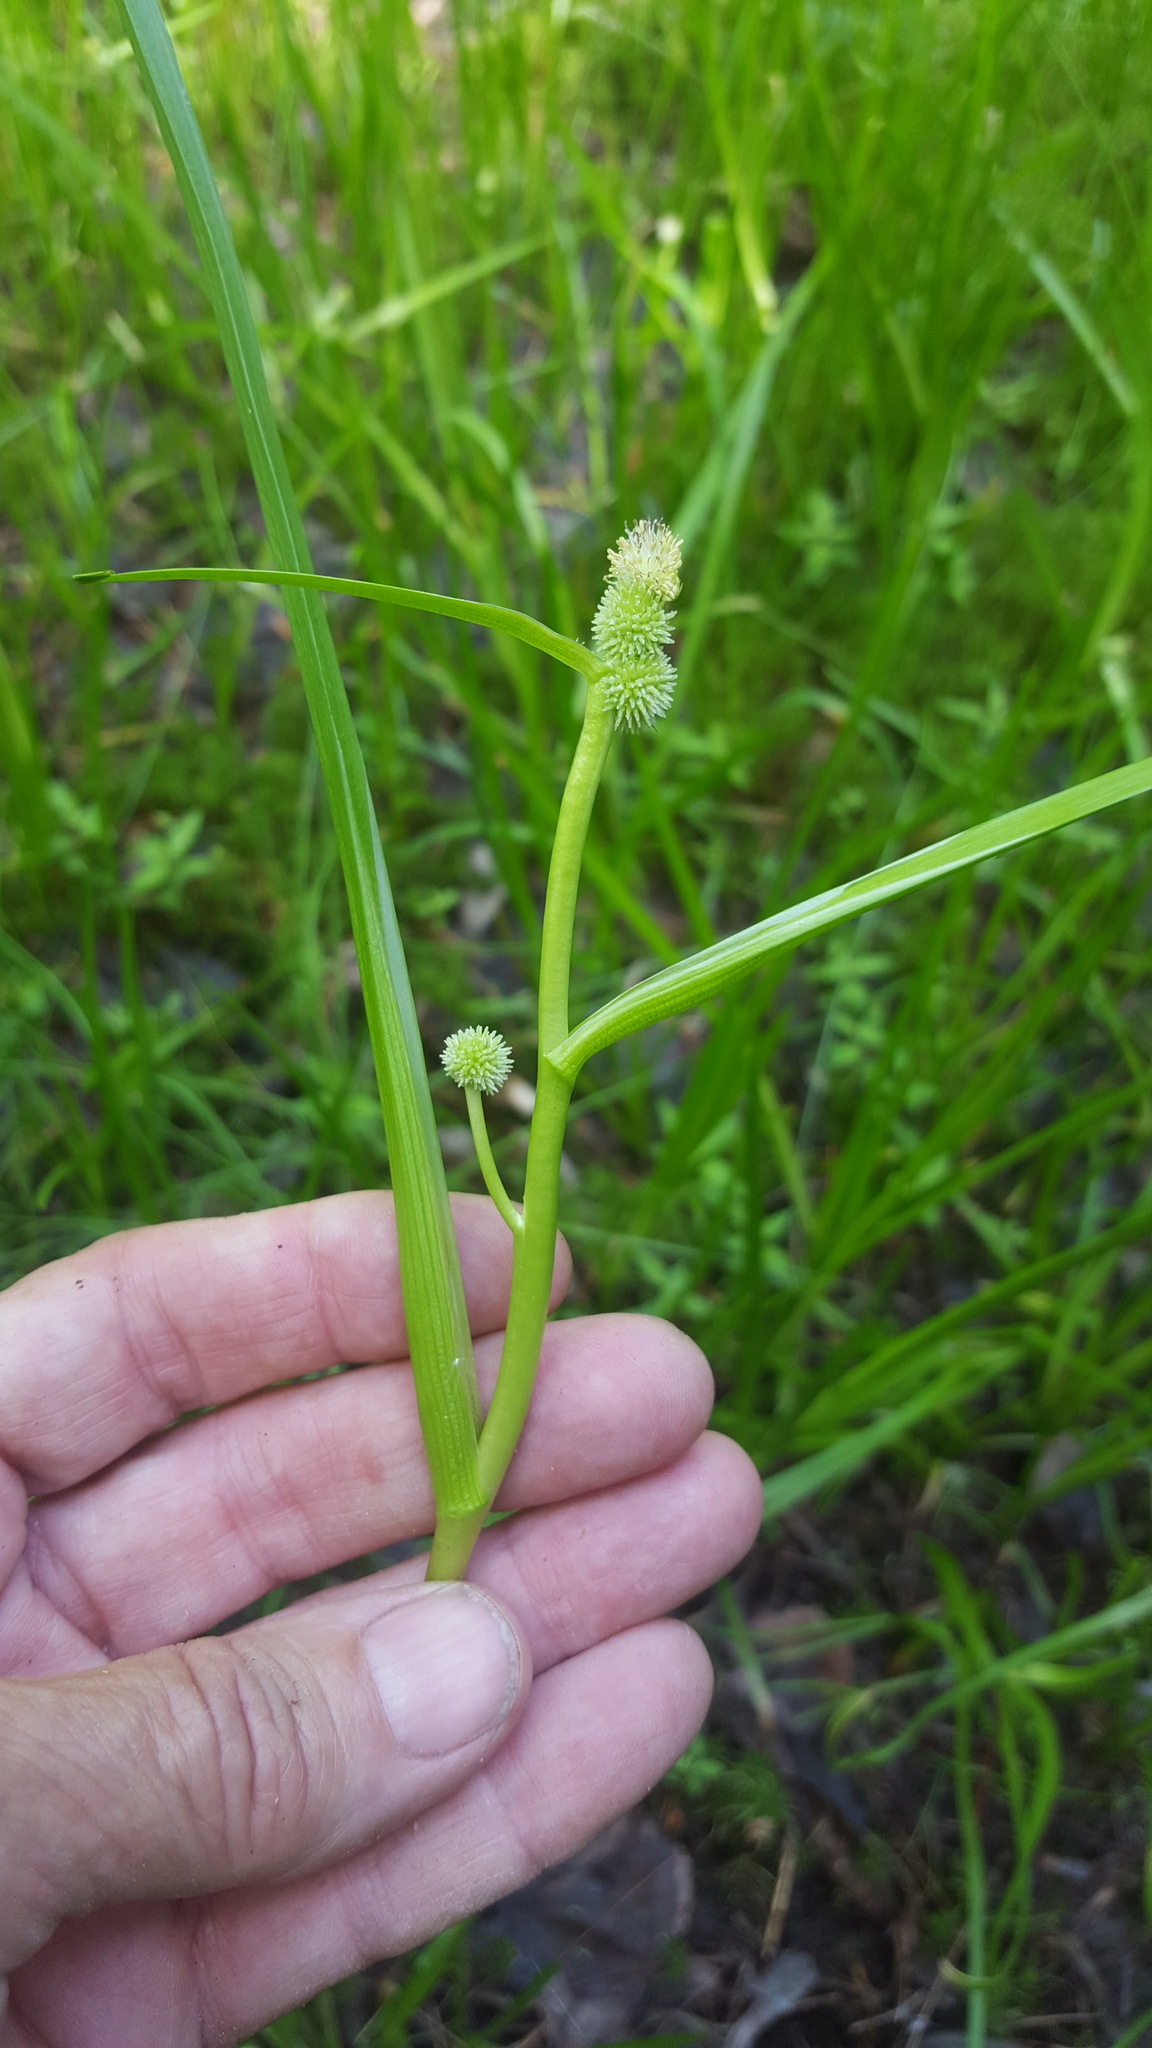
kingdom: Plantae
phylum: Tracheophyta
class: Liliopsida
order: Poales
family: Typhaceae
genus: Sparganium
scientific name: Sparganium glomeratum
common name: Clustered burreed
